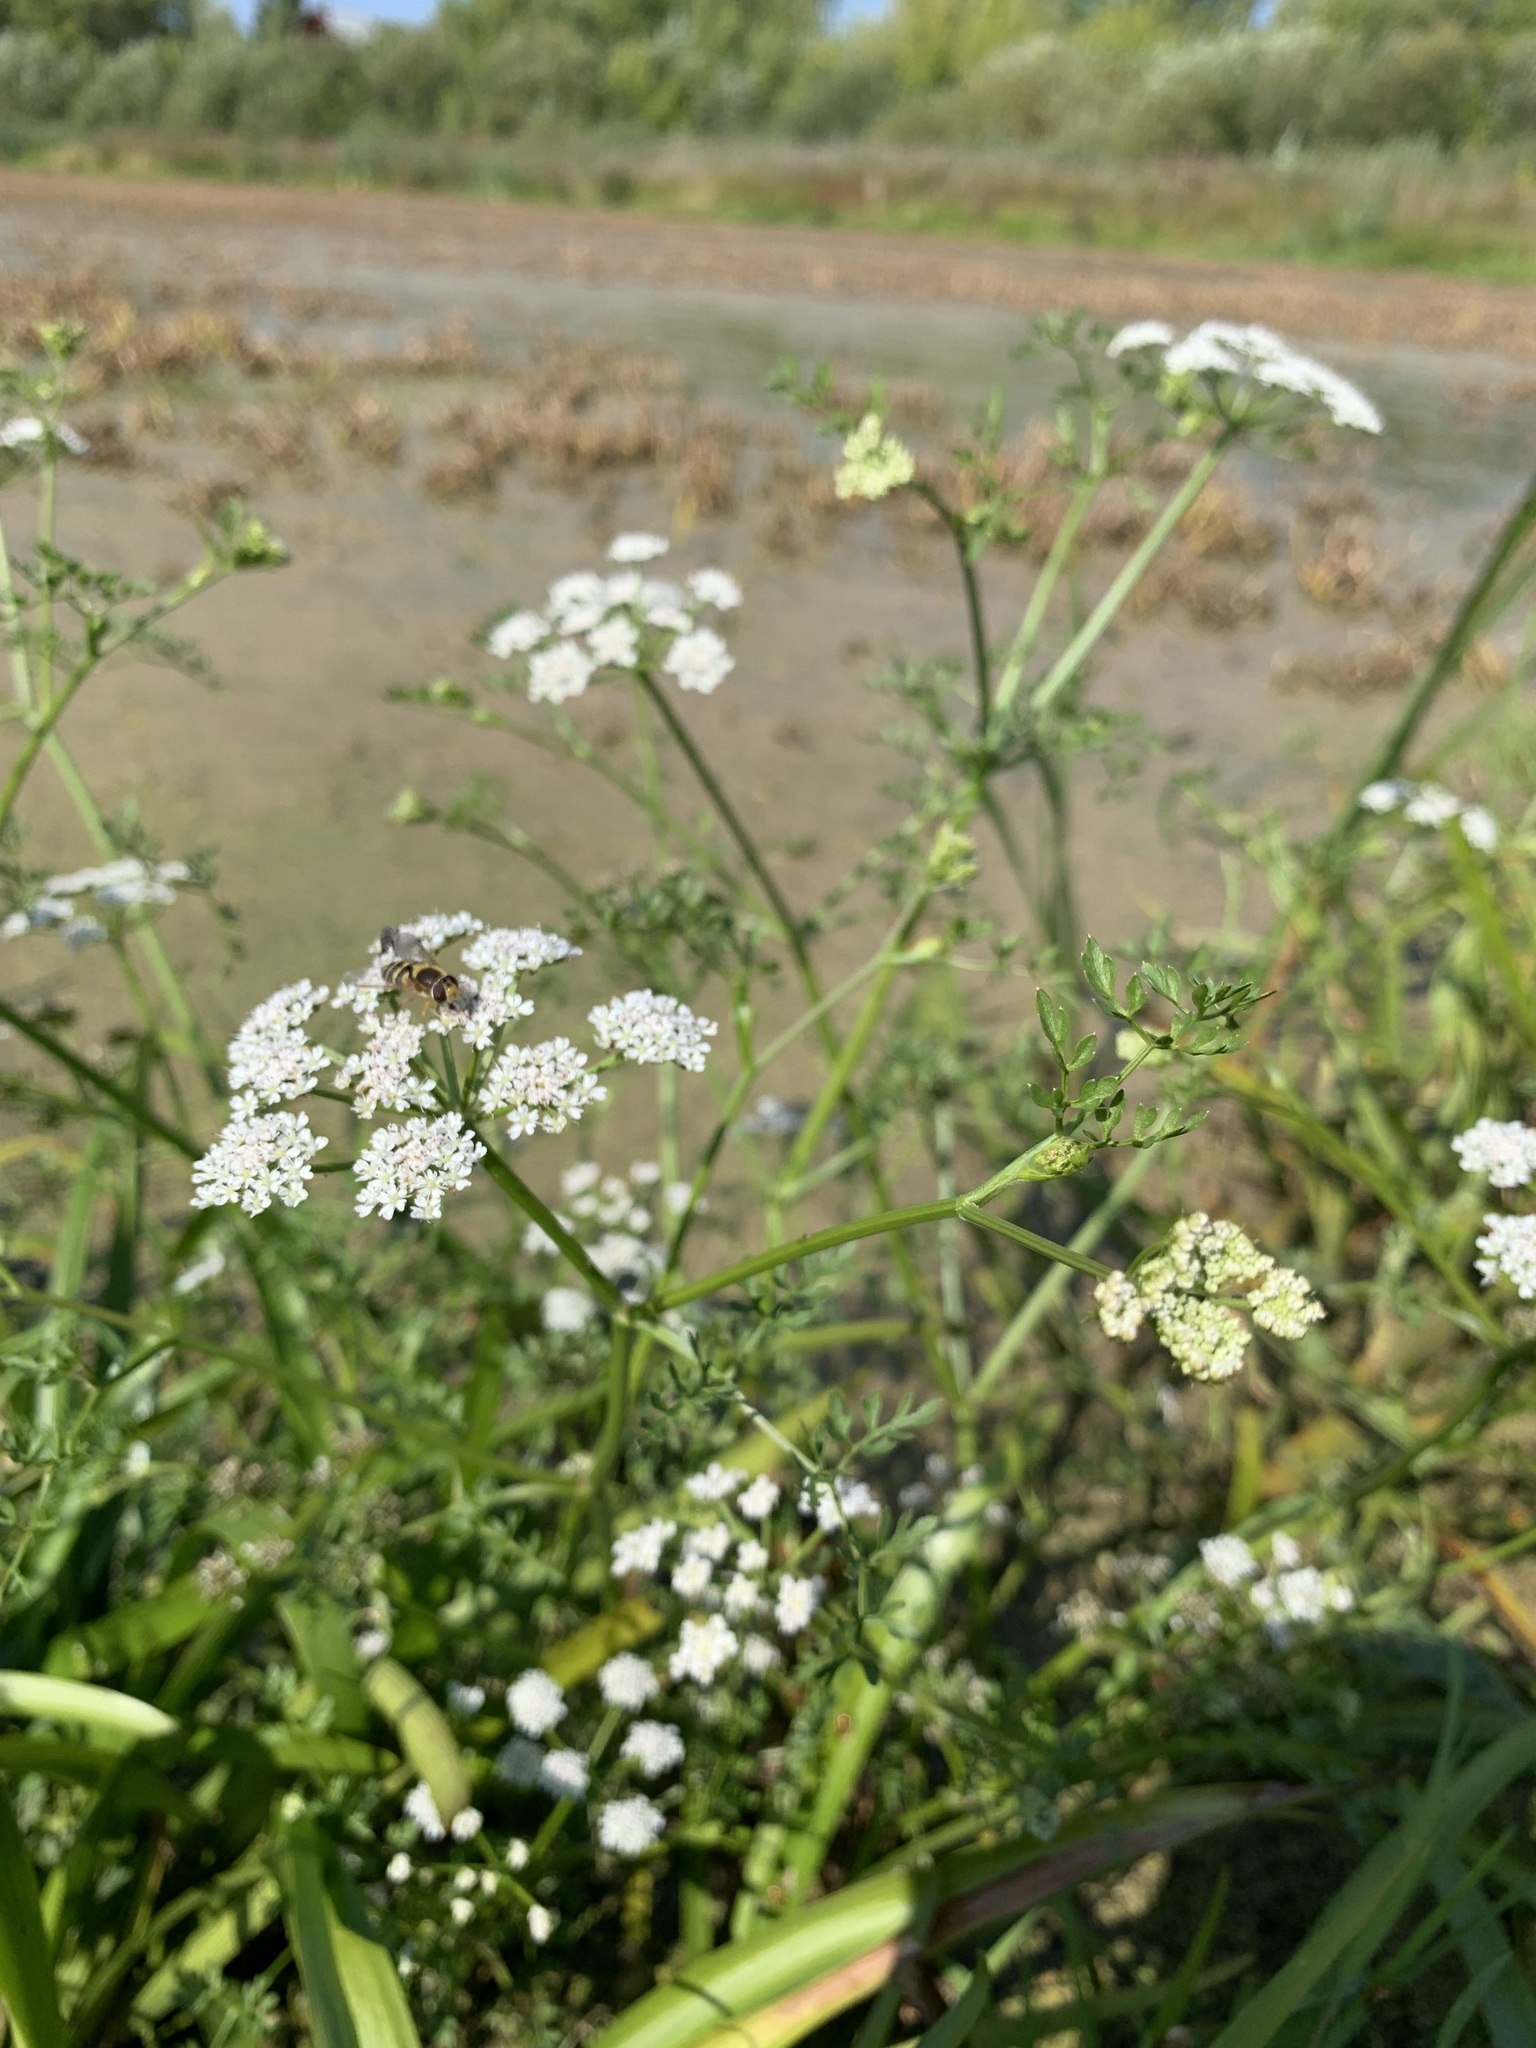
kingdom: Plantae
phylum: Tracheophyta
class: Magnoliopsida
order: Apiales
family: Apiaceae
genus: Oenanthe
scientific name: Oenanthe aquatica
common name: Fine-leaved water-dropwort
